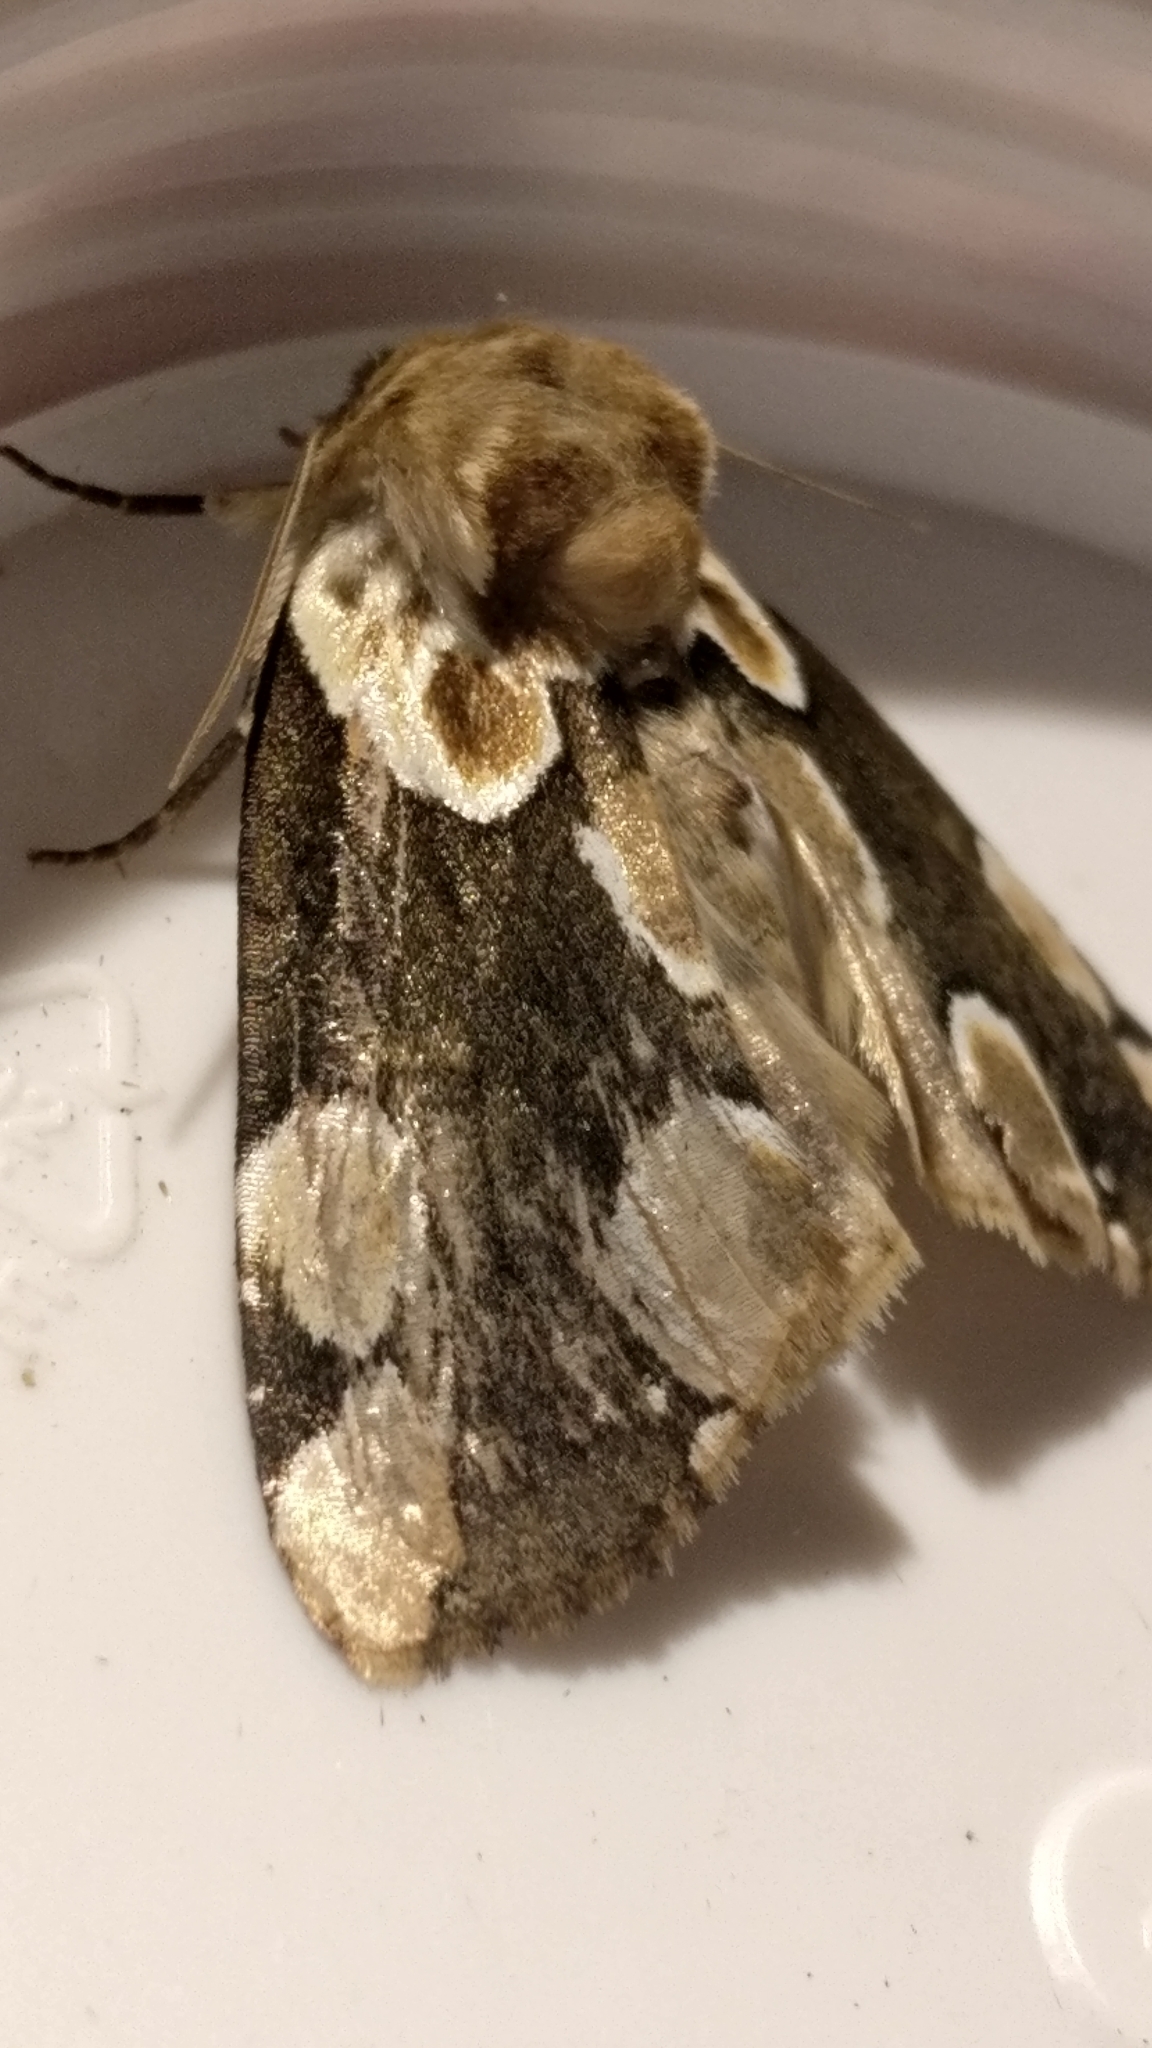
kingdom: Animalia
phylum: Arthropoda
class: Insecta
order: Lepidoptera
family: Drepanidae
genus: Thyatira
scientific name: Thyatira batis
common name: Peach blossom
